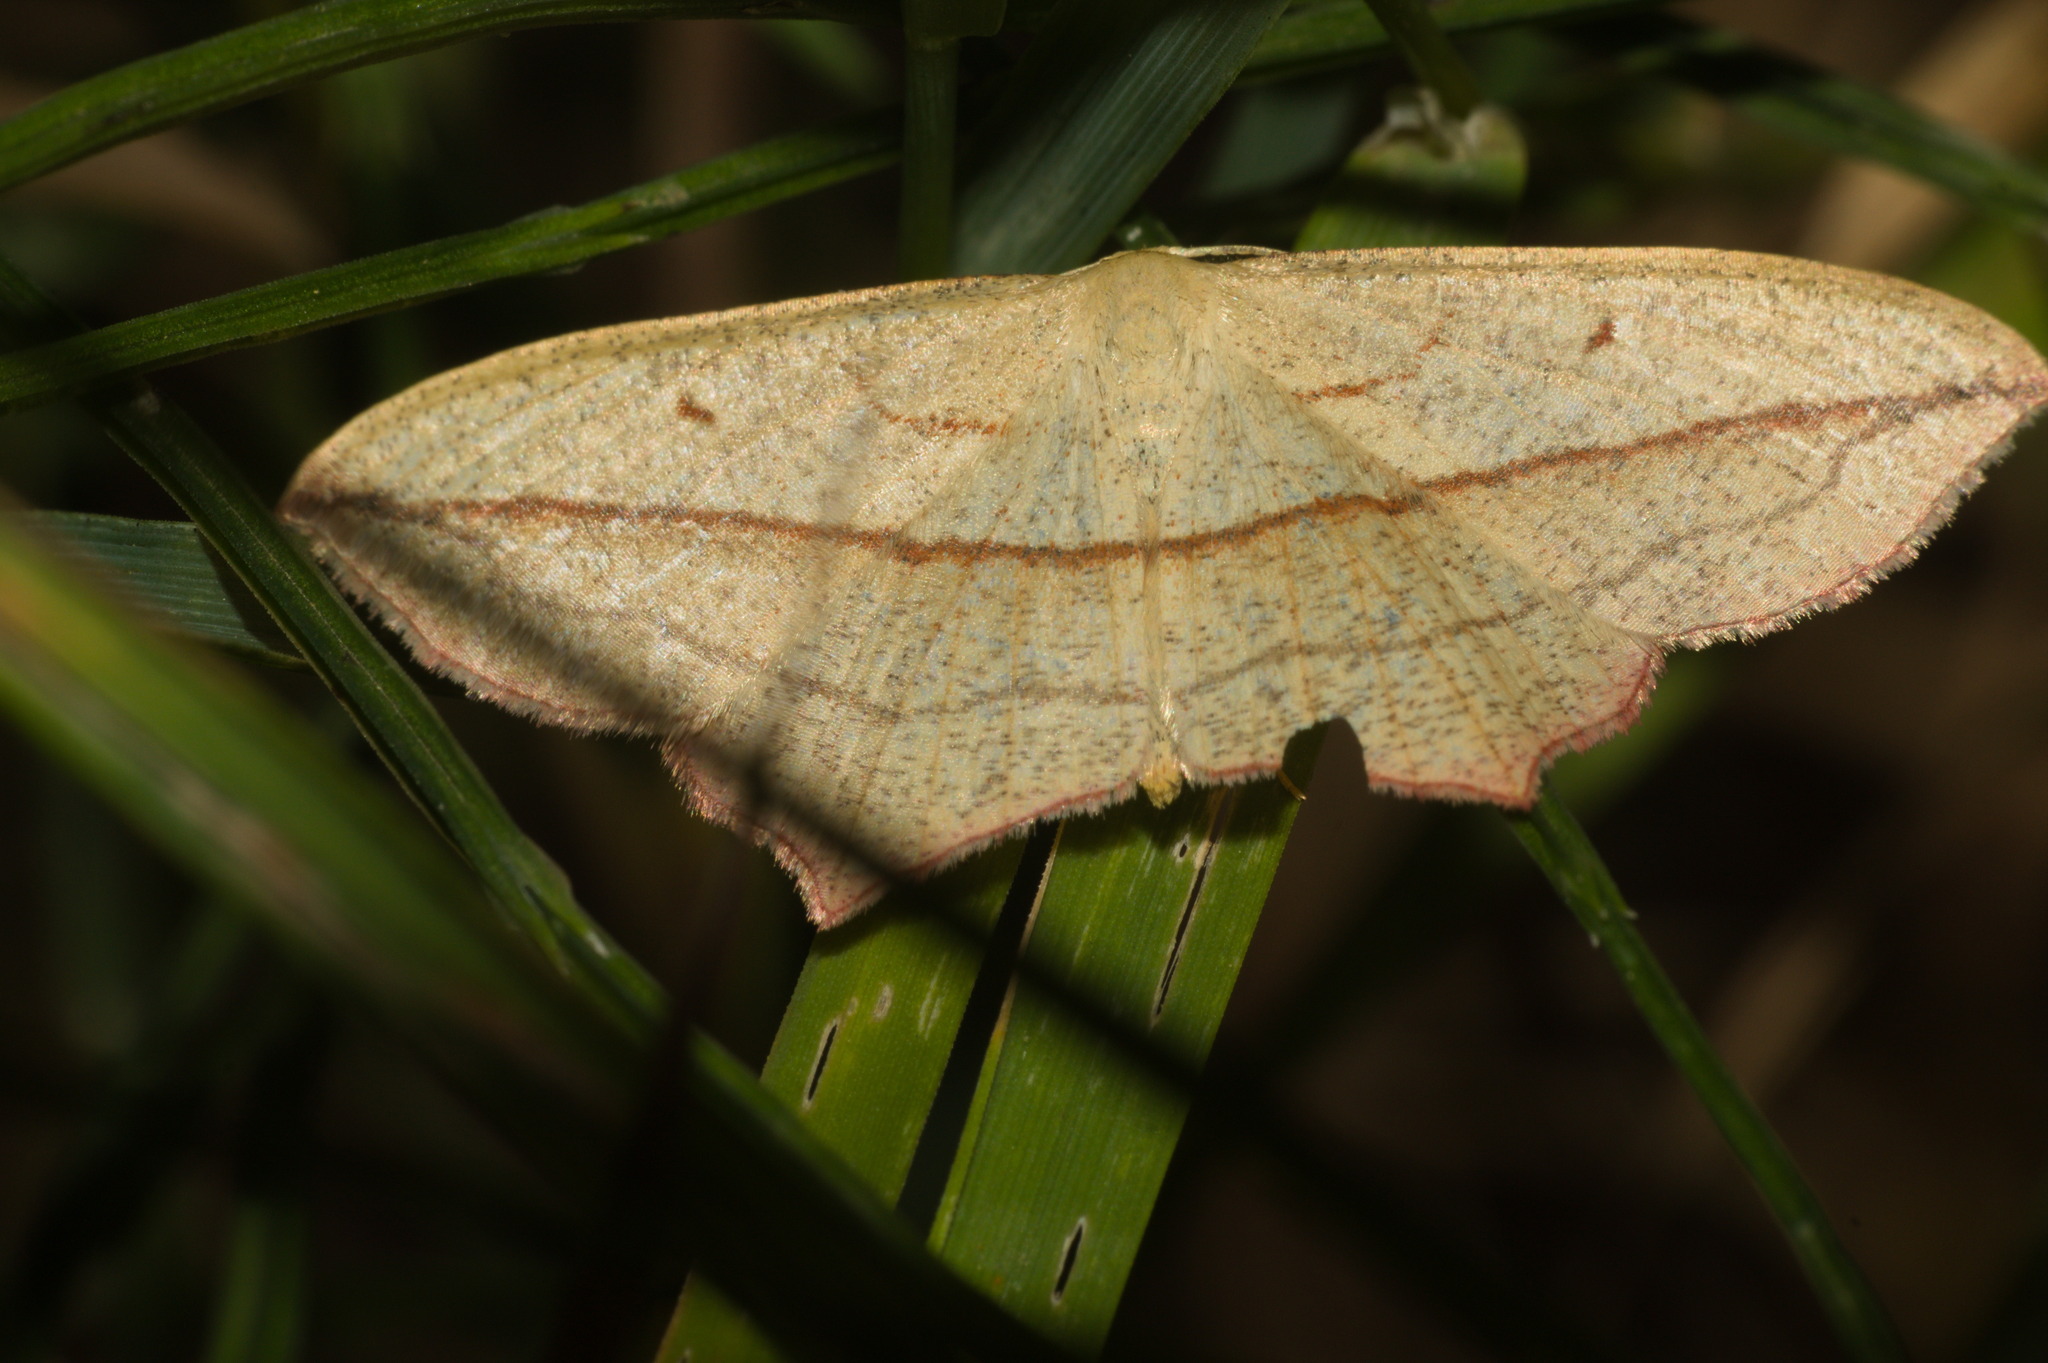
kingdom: Animalia
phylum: Arthropoda
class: Insecta
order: Lepidoptera
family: Geometridae
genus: Timandra
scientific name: Timandra comae
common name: Blood-vein
